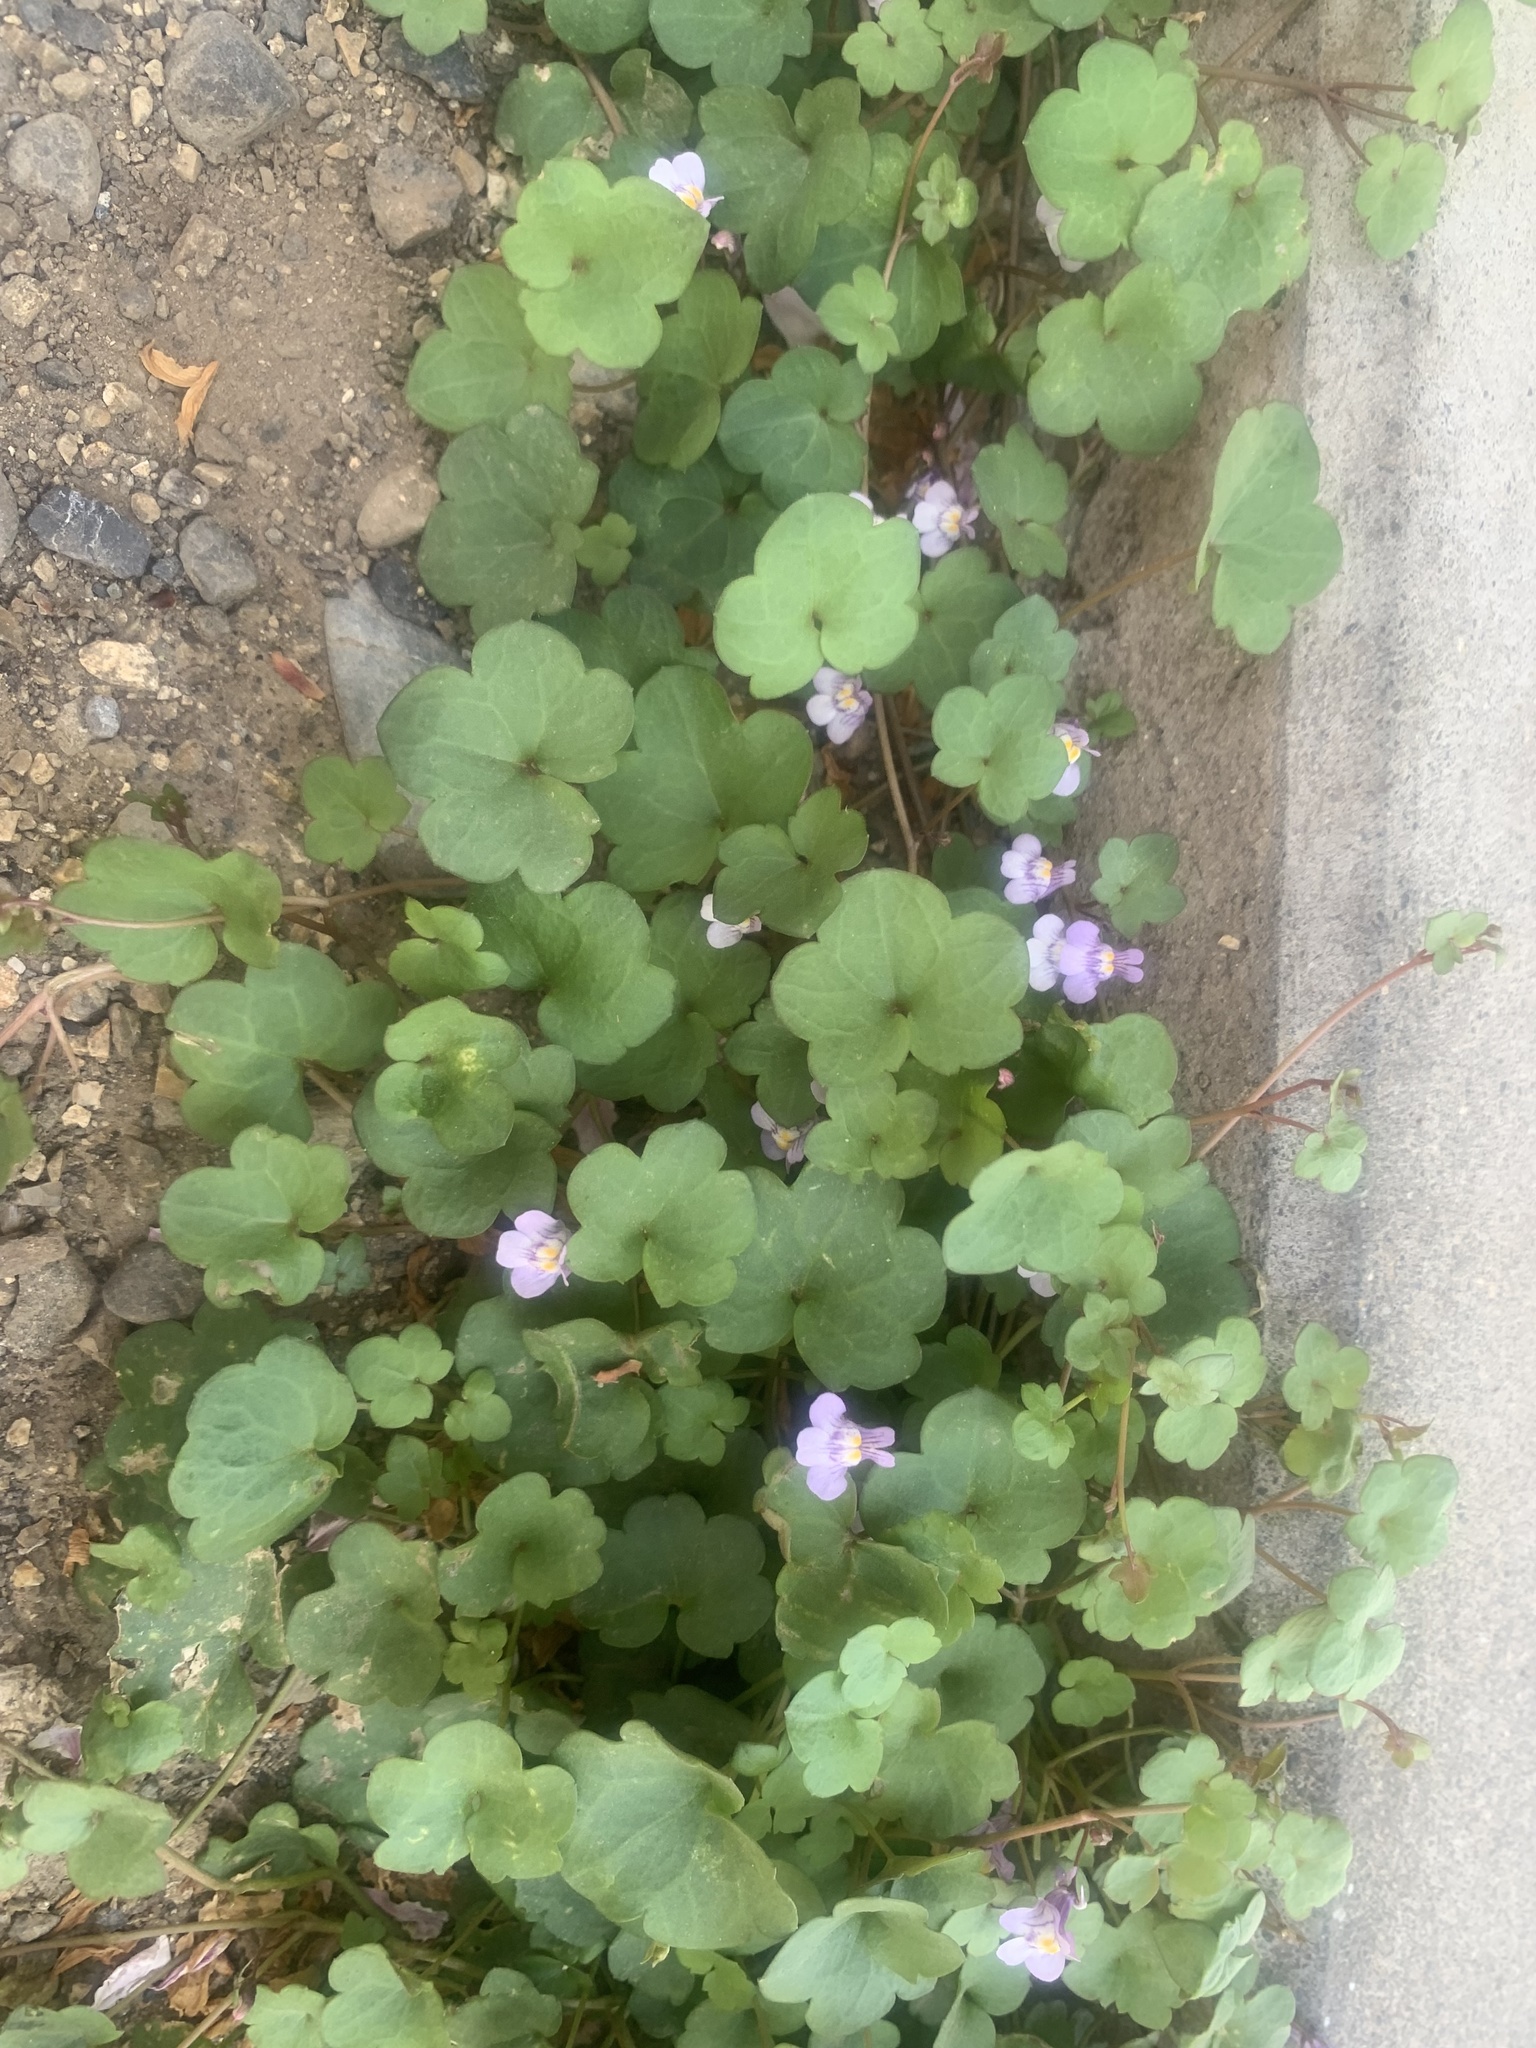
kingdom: Plantae
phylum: Tracheophyta
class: Magnoliopsida
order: Lamiales
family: Plantaginaceae
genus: Cymbalaria
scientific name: Cymbalaria muralis
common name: Ivy-leaved toadflax
